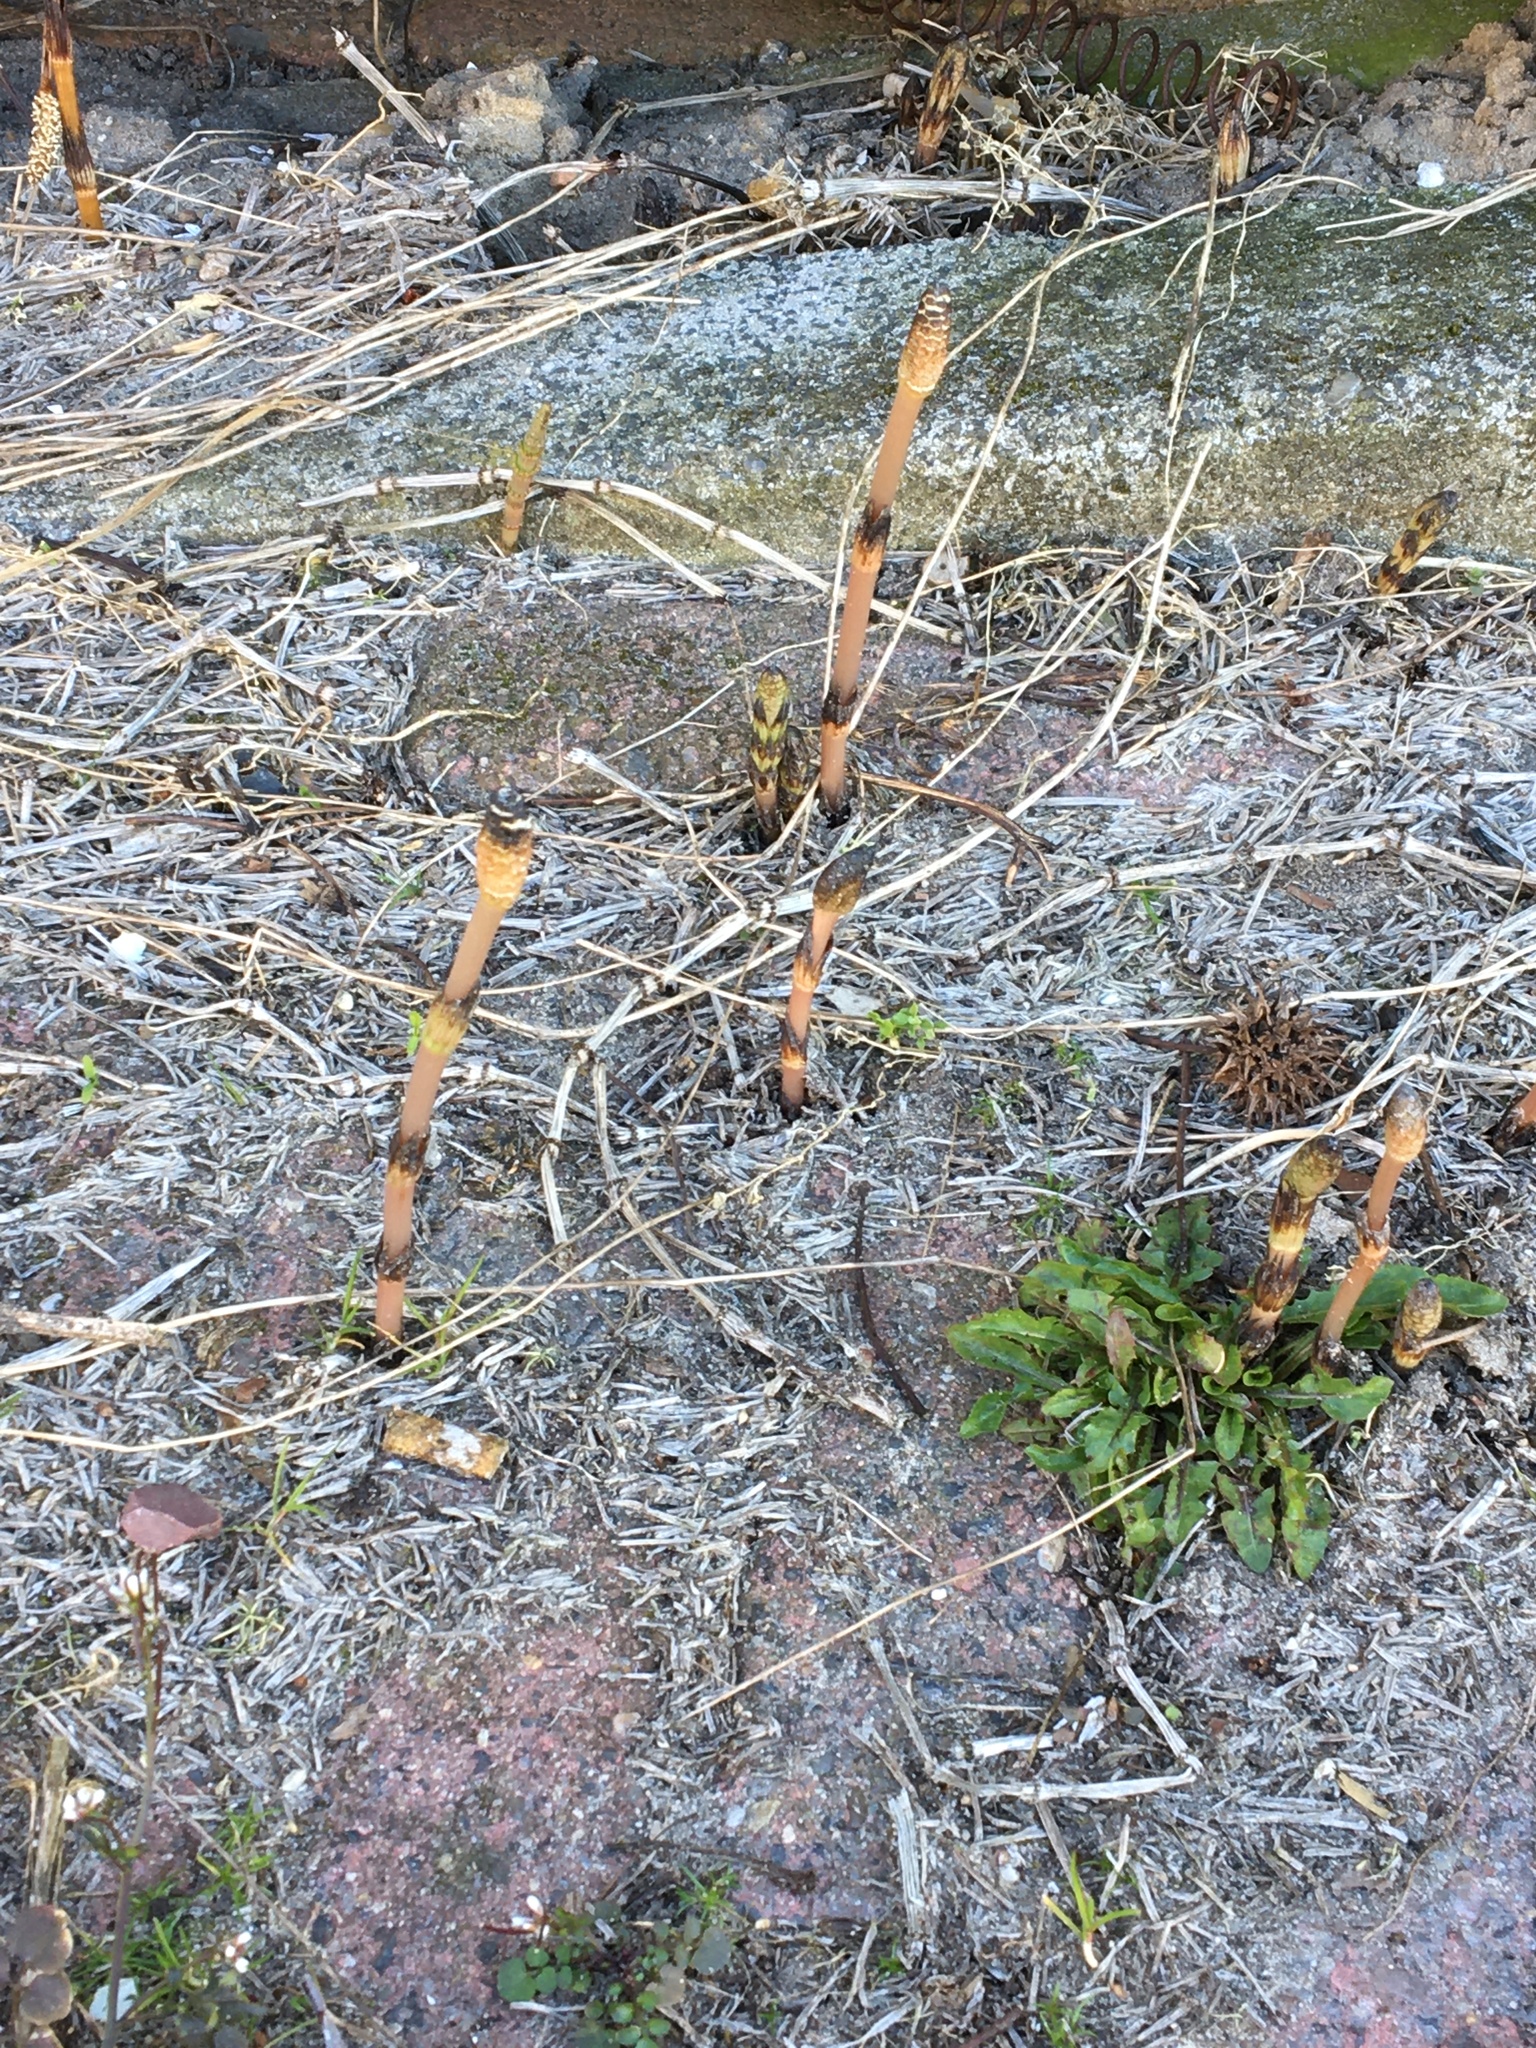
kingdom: Plantae
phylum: Tracheophyta
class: Polypodiopsida
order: Equisetales
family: Equisetaceae
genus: Equisetum
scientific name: Equisetum arvense
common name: Field horsetail
